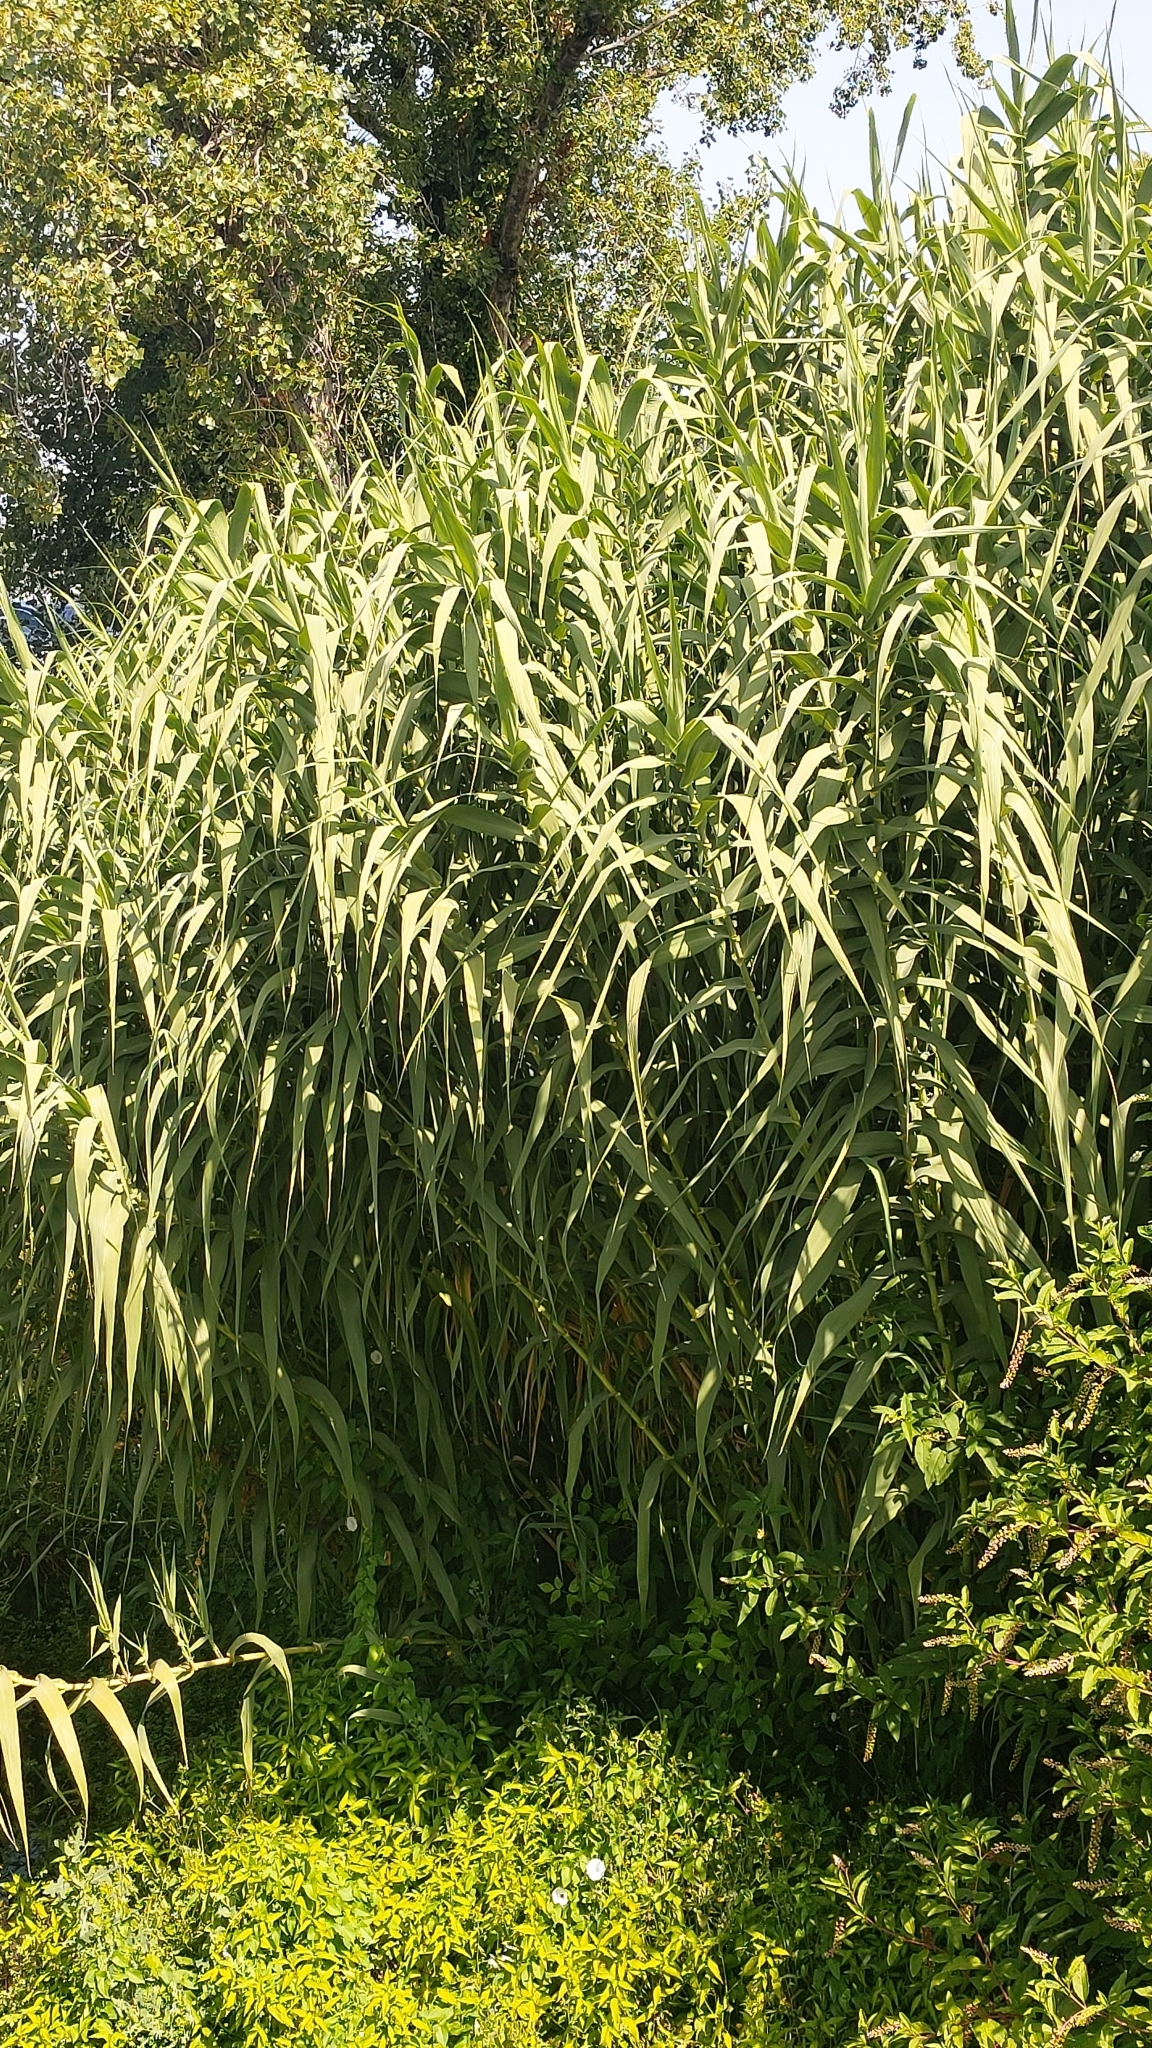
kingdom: Plantae
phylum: Tracheophyta
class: Liliopsida
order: Poales
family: Poaceae
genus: Arundo
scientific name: Arundo donax
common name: Giant reed
